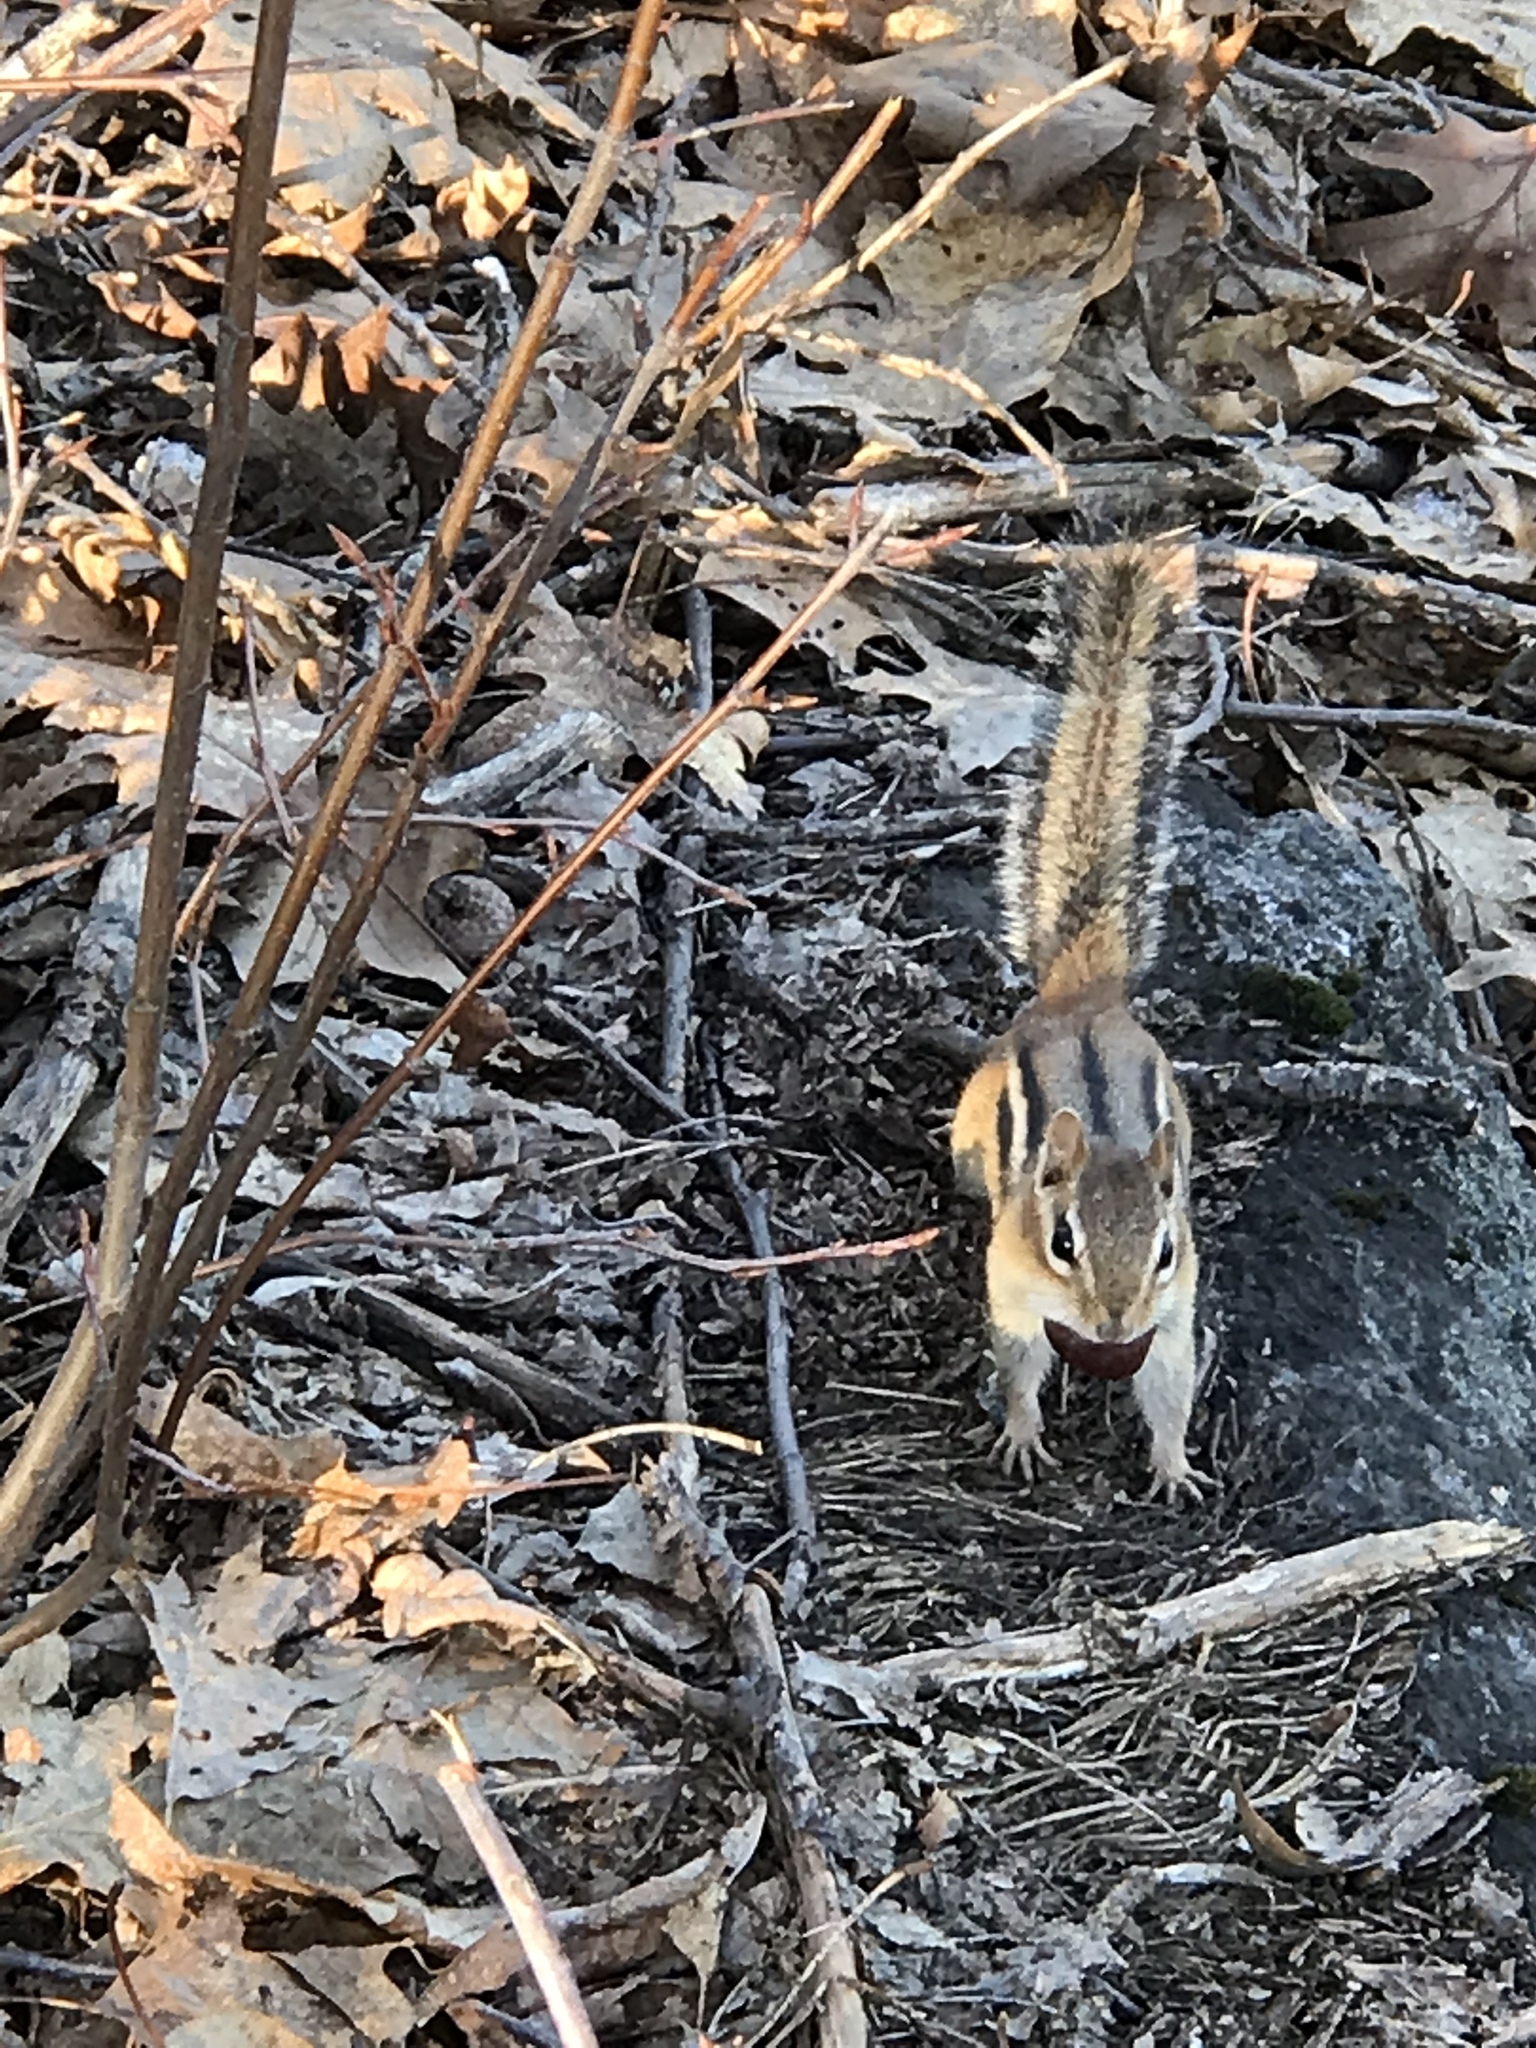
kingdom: Animalia
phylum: Chordata
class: Mammalia
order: Rodentia
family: Sciuridae
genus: Tamias
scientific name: Tamias striatus
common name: Eastern chipmunk
